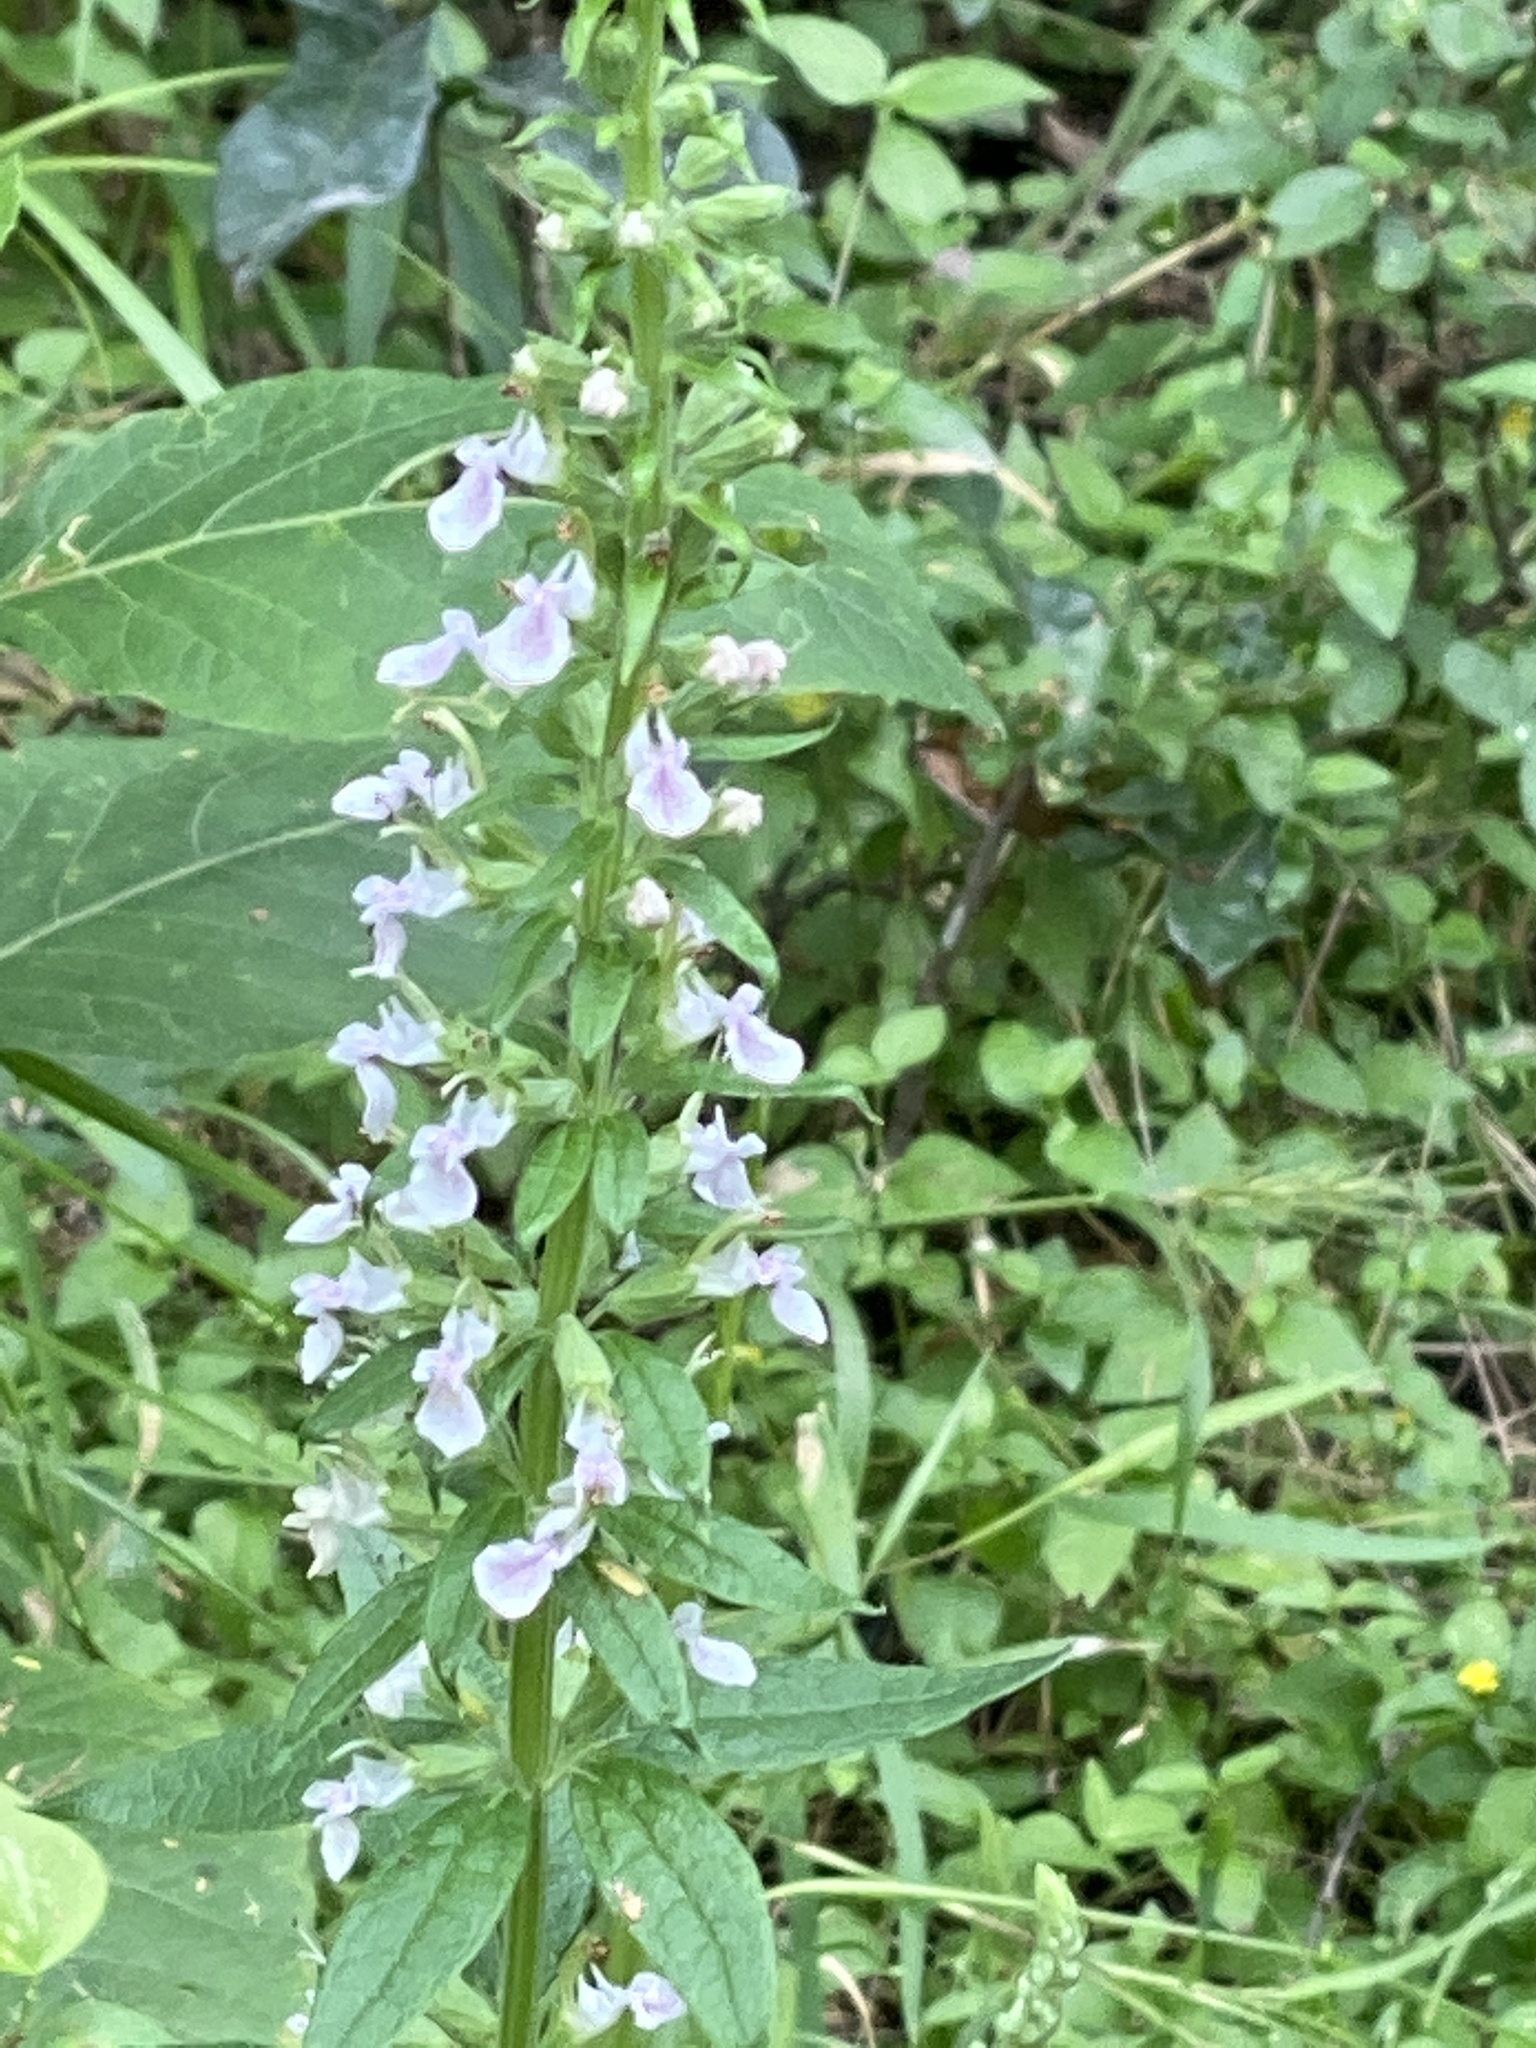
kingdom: Plantae
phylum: Tracheophyta
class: Magnoliopsida
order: Lamiales
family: Lamiaceae
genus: Teucrium
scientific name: Teucrium canadense
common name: American germander
